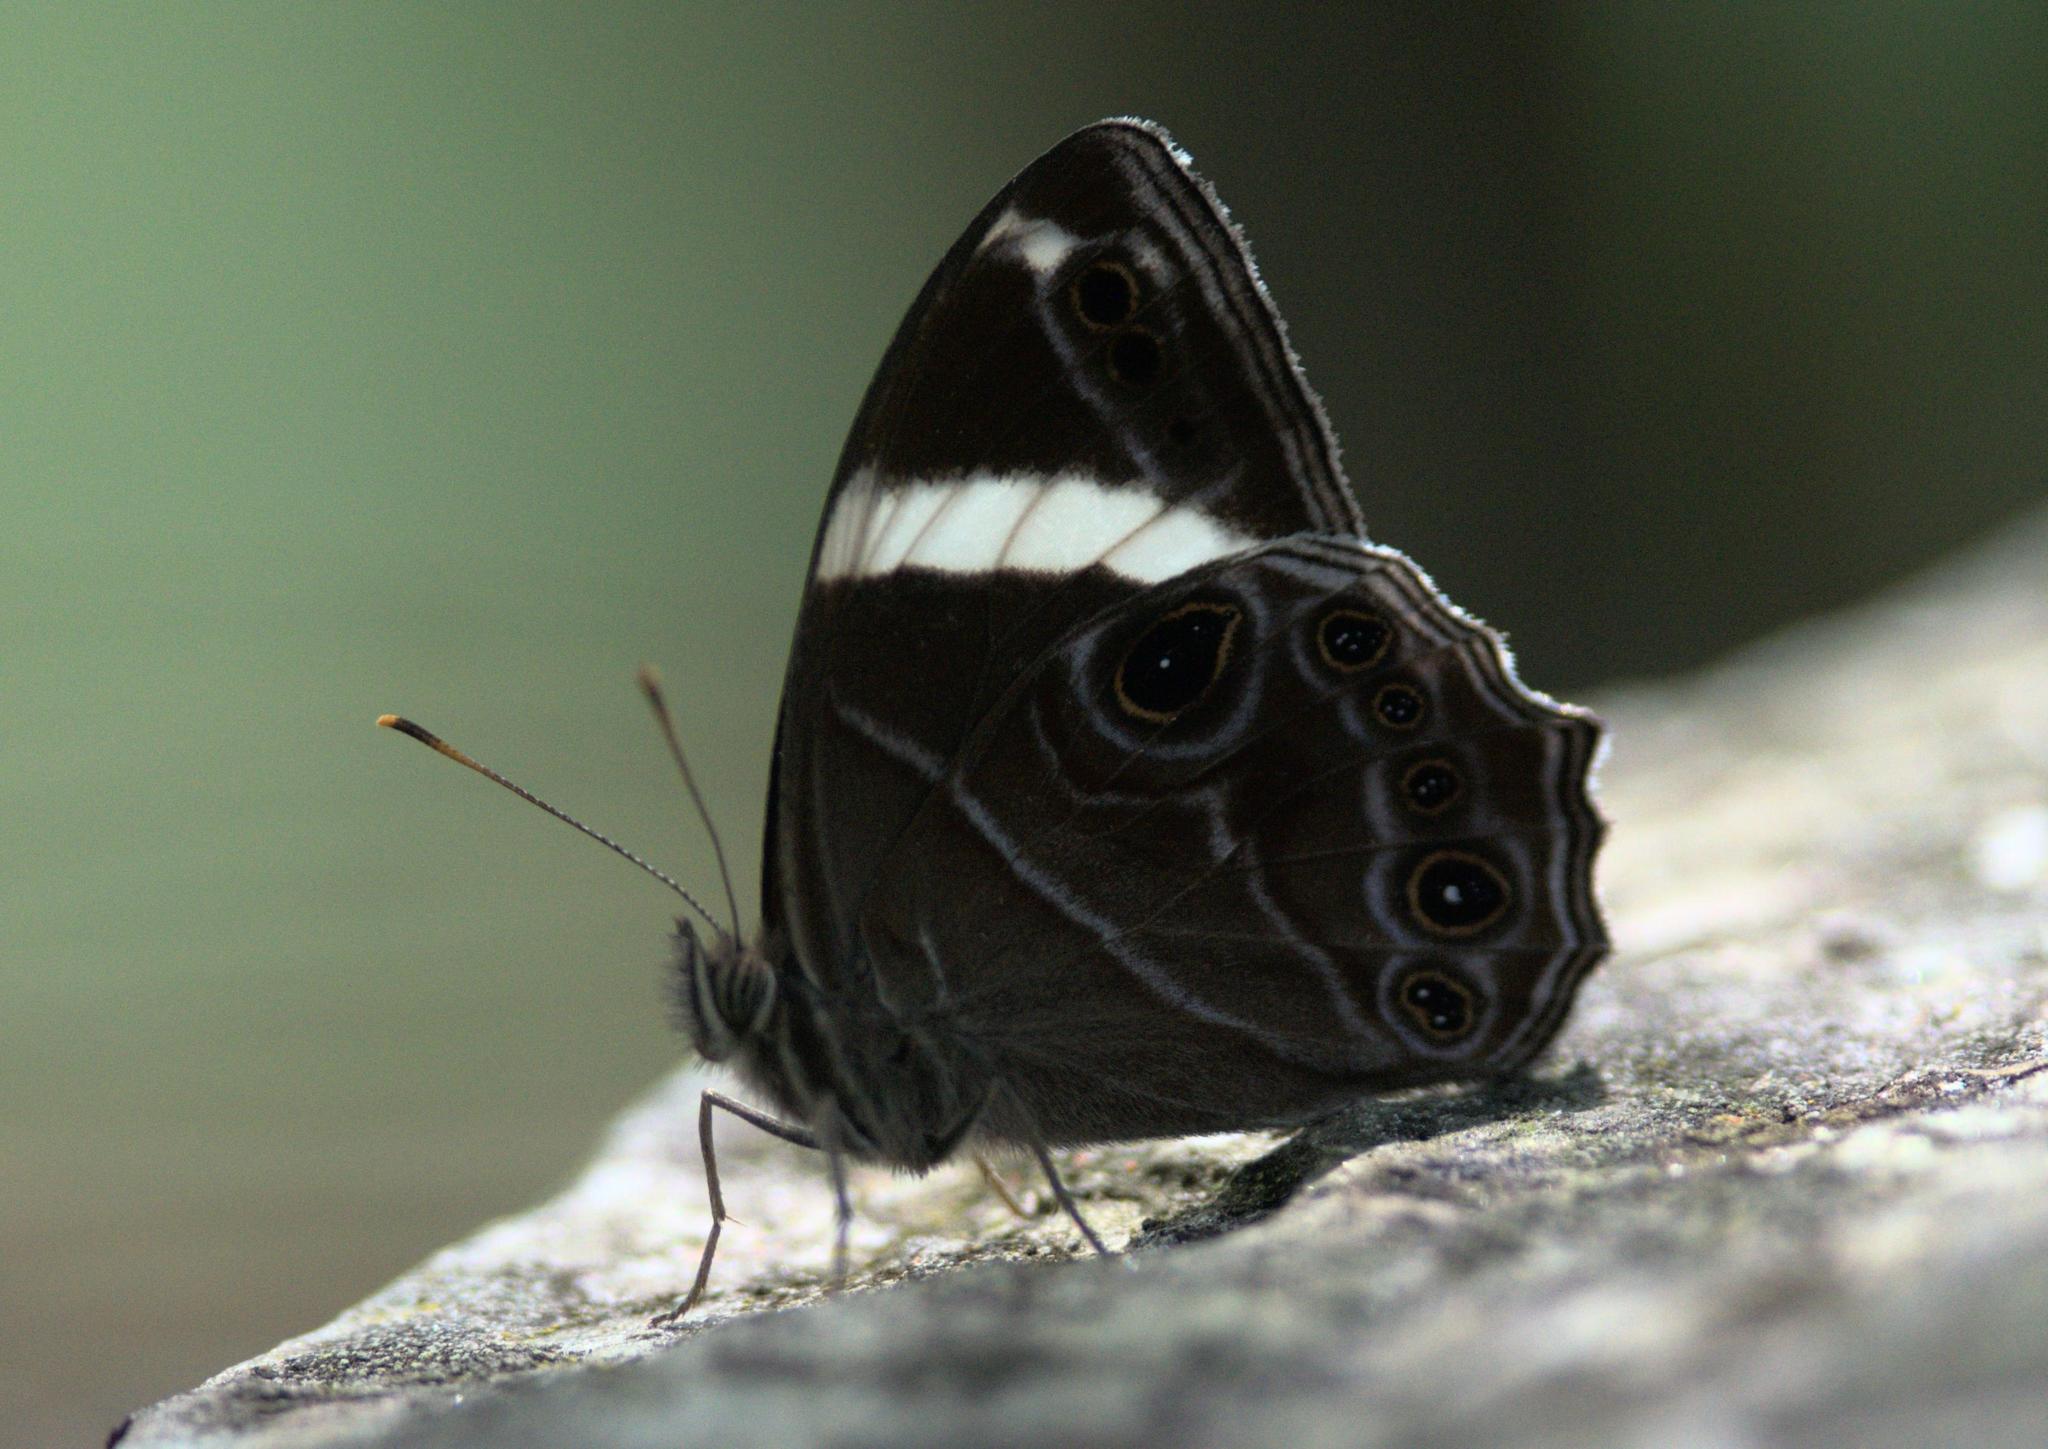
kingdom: Animalia
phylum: Arthropoda
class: Insecta
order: Lepidoptera
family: Nymphalidae
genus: Lethe
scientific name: Lethe confusa
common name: Banded treebrown
